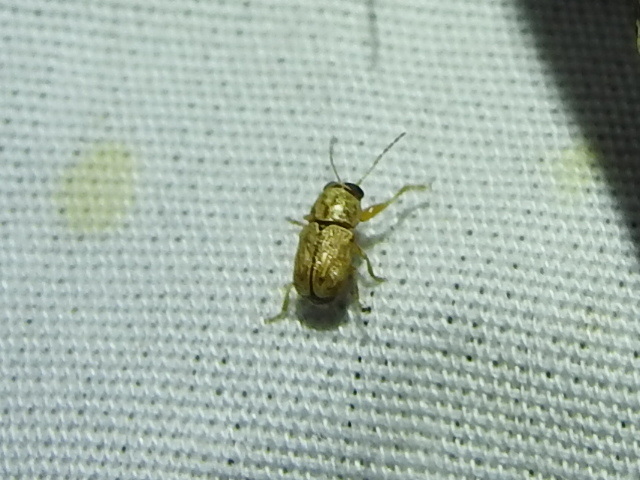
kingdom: Animalia
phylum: Arthropoda
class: Insecta
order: Coleoptera
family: Chrysomelidae
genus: Pachybrachis
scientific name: Pachybrachis pusillus
